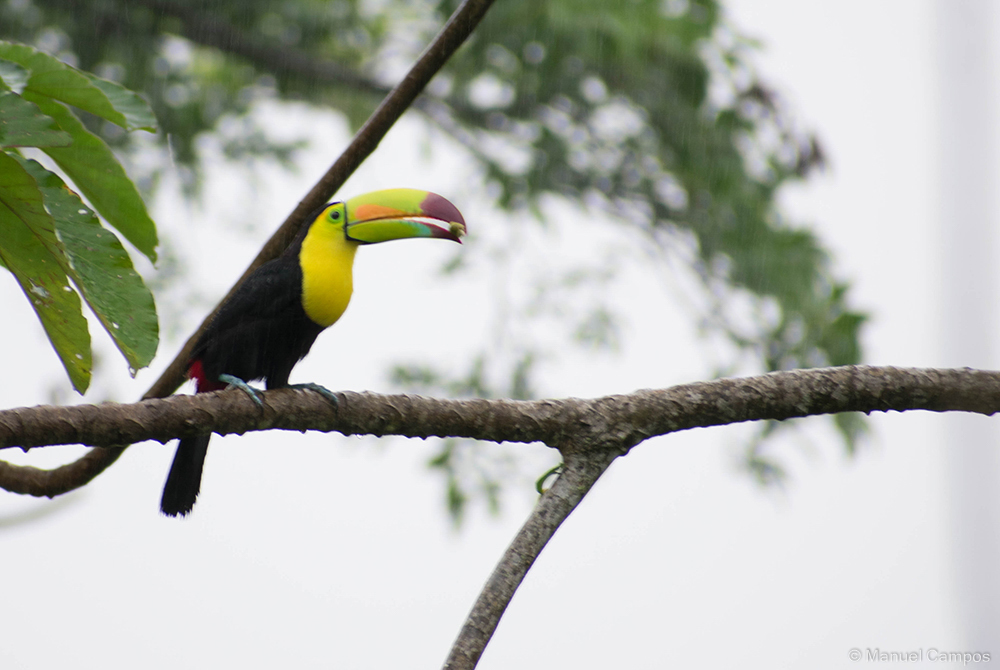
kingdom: Animalia
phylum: Chordata
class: Aves
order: Piciformes
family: Ramphastidae
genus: Ramphastos
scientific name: Ramphastos sulfuratus
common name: Keel-billed toucan
